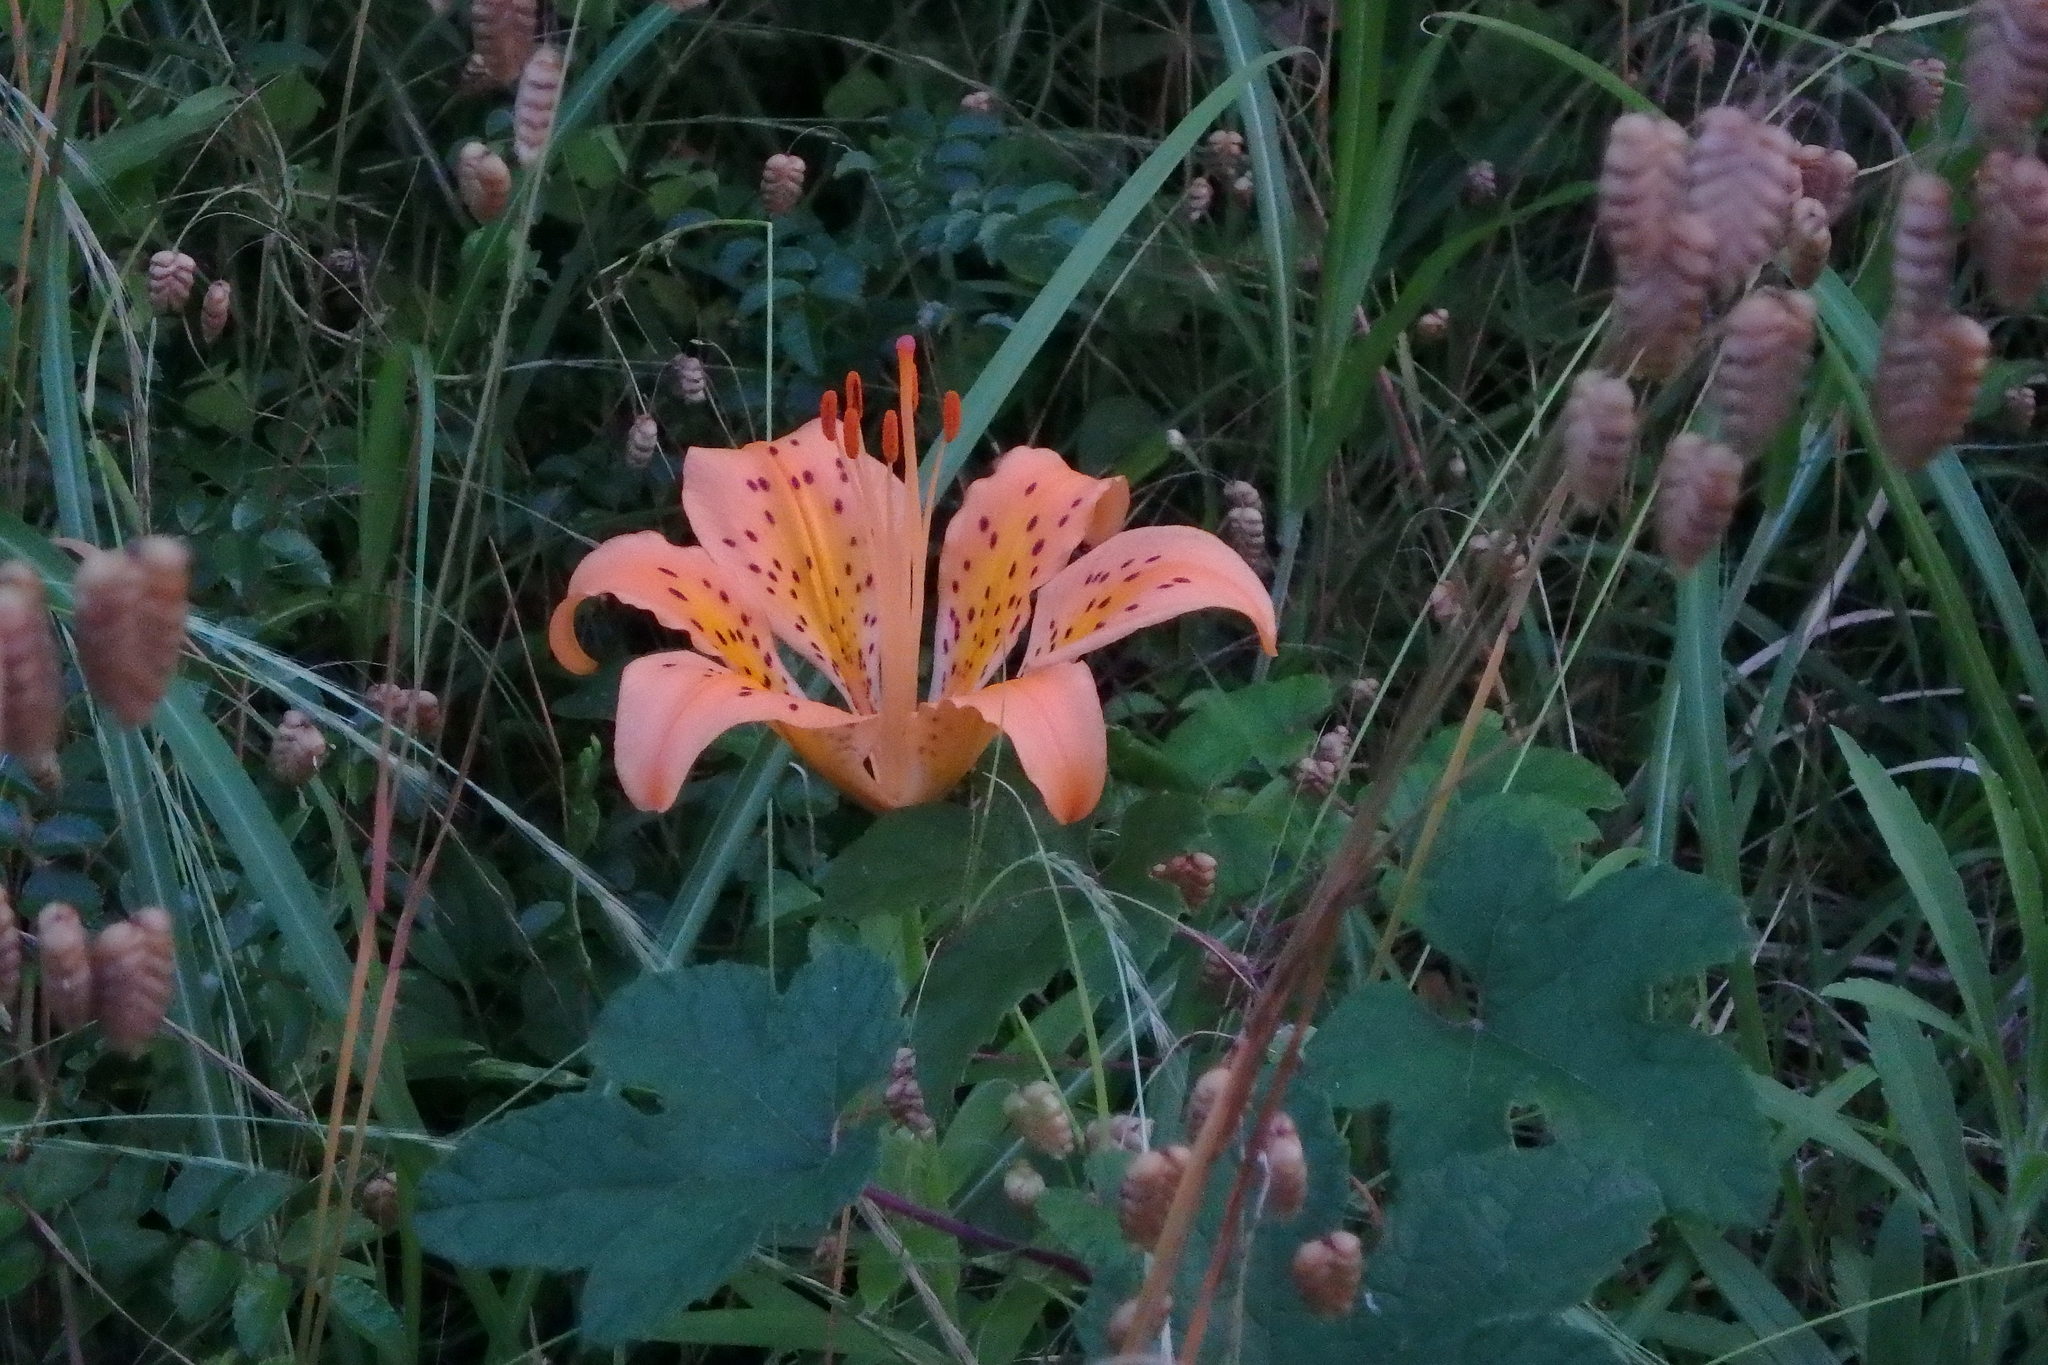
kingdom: Plantae
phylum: Tracheophyta
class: Liliopsida
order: Liliales
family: Liliaceae
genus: Lilium
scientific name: Lilium maculatum
